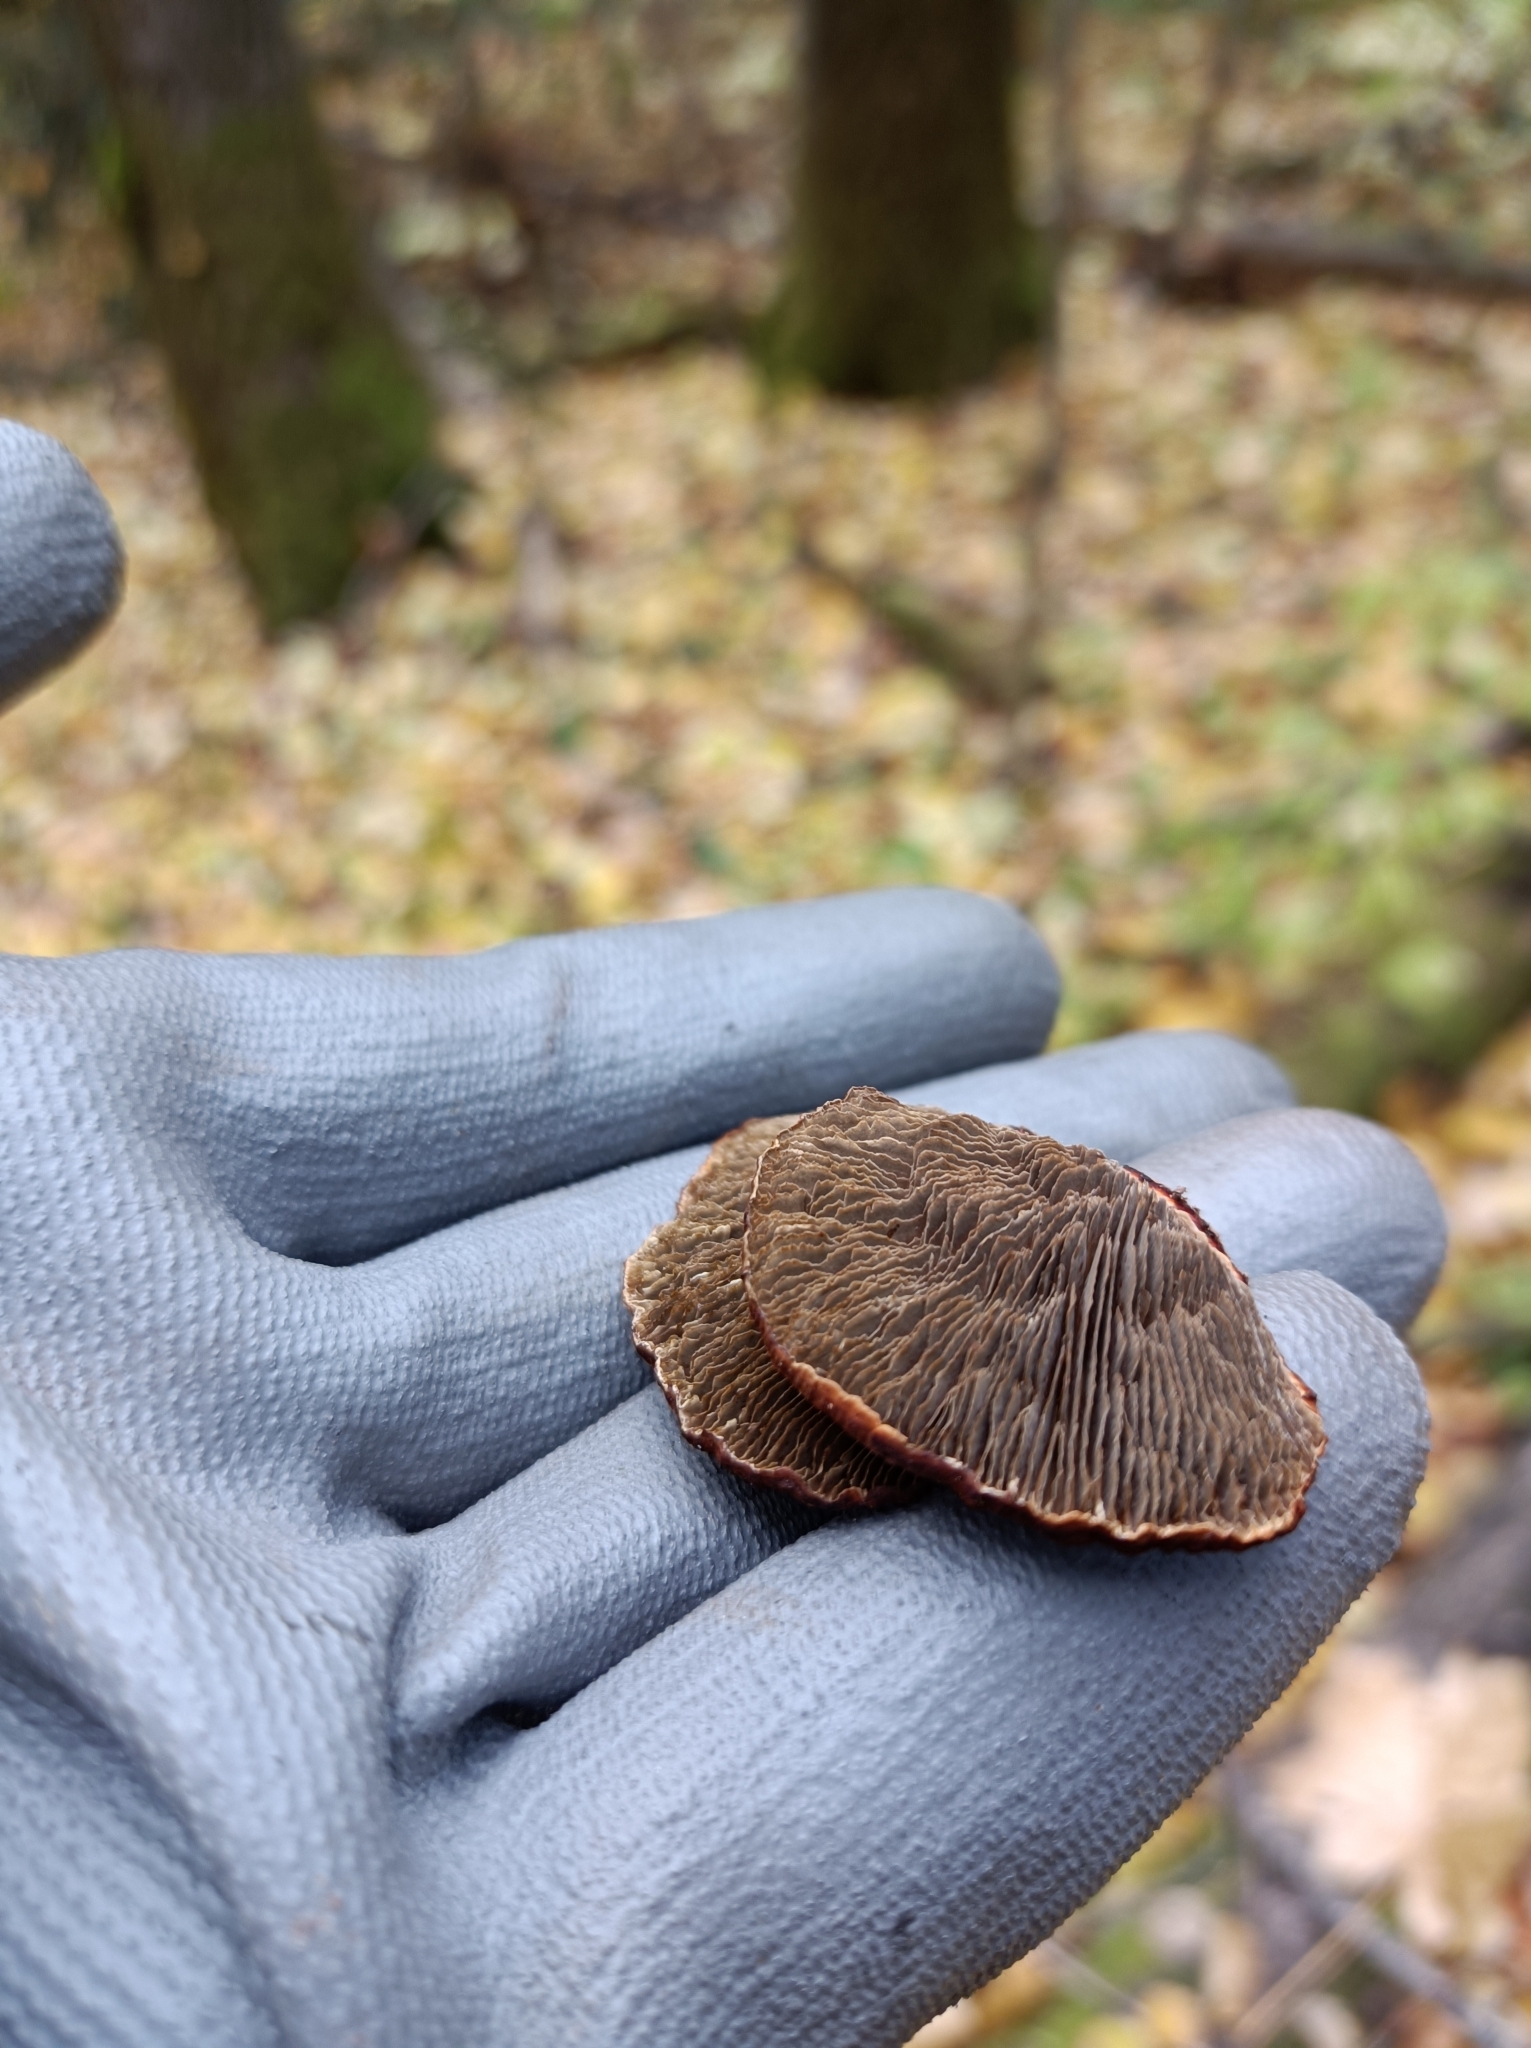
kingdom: Fungi
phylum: Basidiomycota
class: Agaricomycetes
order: Polyporales
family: Polyporaceae
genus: Daedaleopsis
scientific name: Daedaleopsis tricolor
